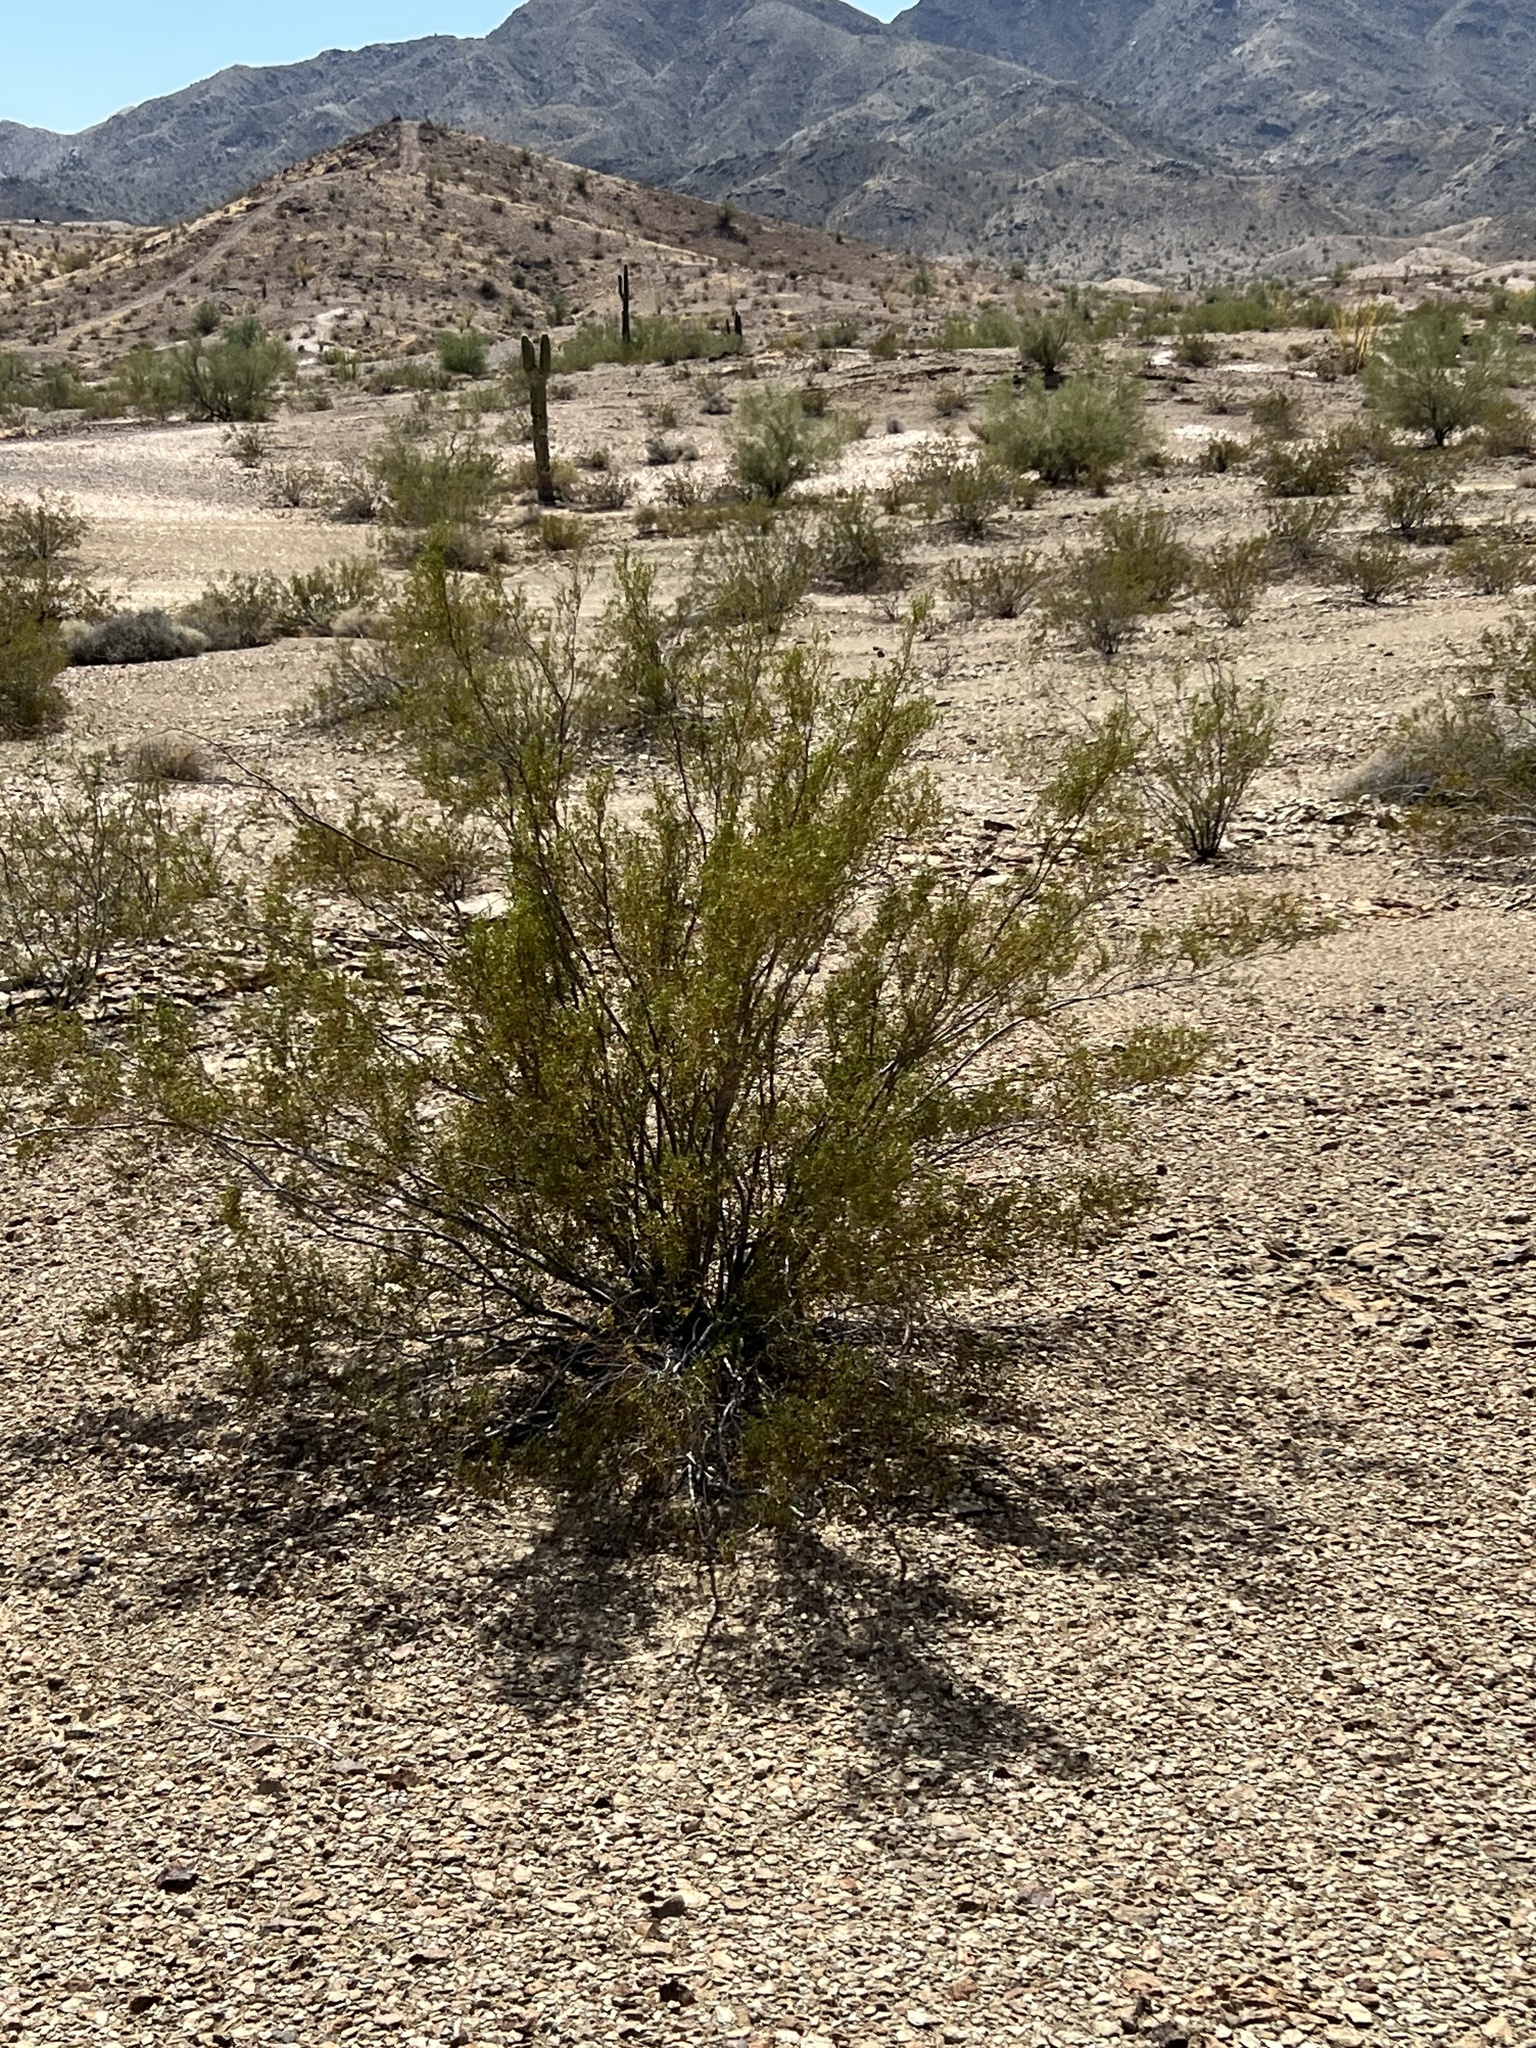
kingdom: Plantae
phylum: Tracheophyta
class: Magnoliopsida
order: Zygophyllales
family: Zygophyllaceae
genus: Larrea
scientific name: Larrea tridentata
